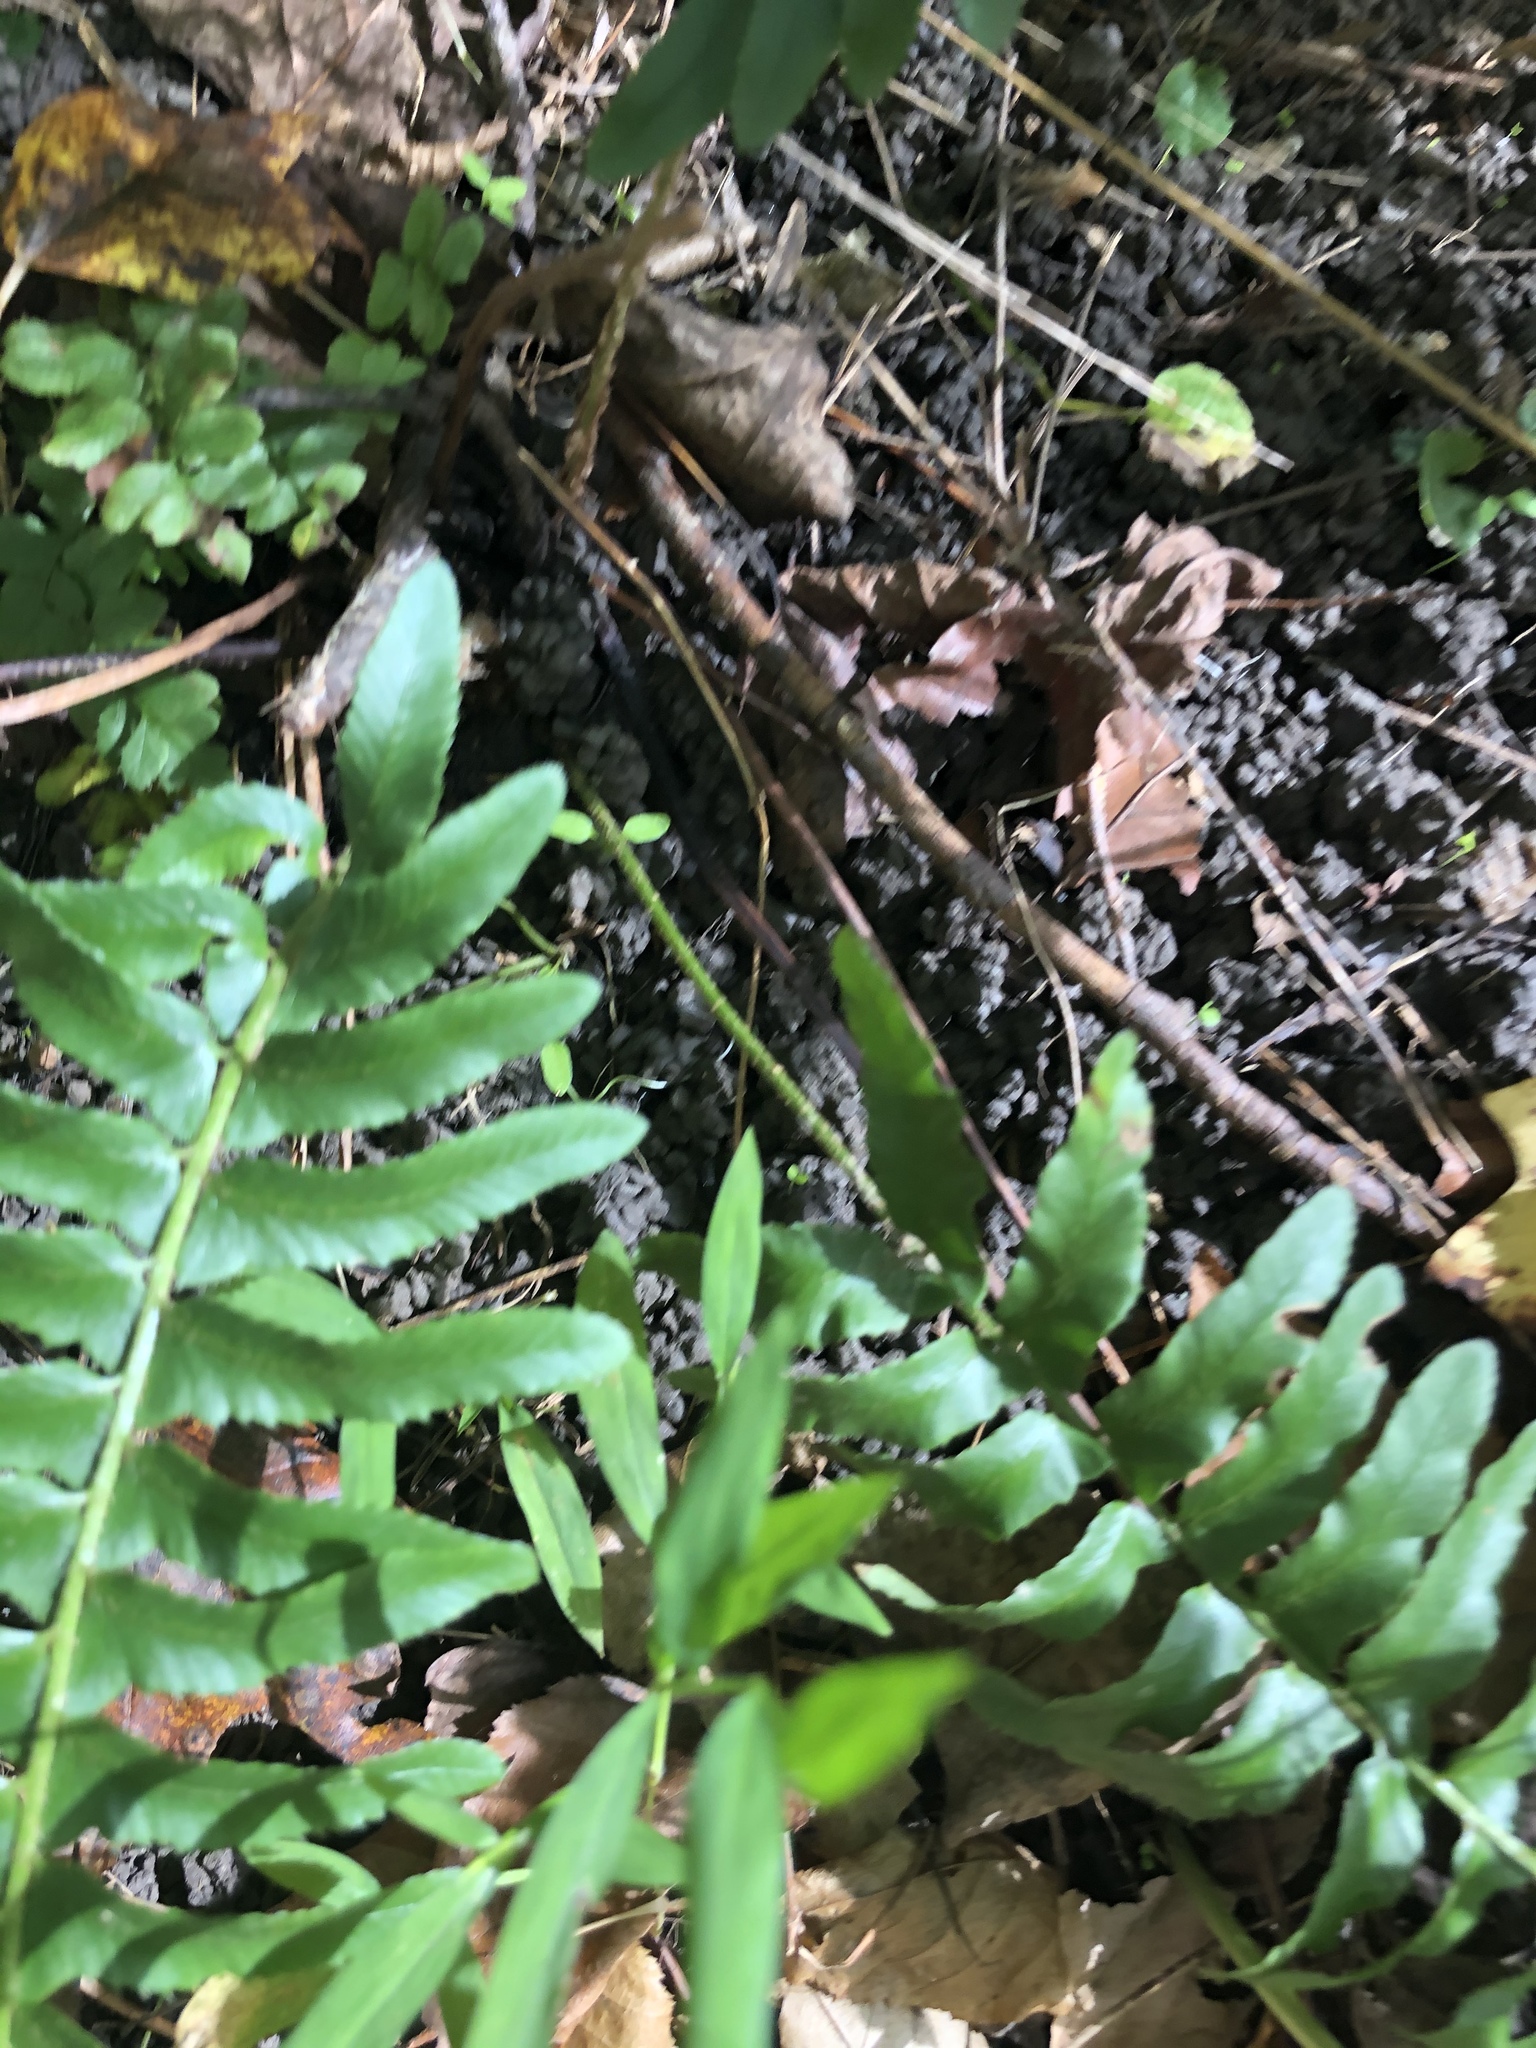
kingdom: Plantae
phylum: Tracheophyta
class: Polypodiopsida
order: Polypodiales
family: Dryopteridaceae
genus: Polystichum
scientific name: Polystichum acrostichoides
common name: Christmas fern
